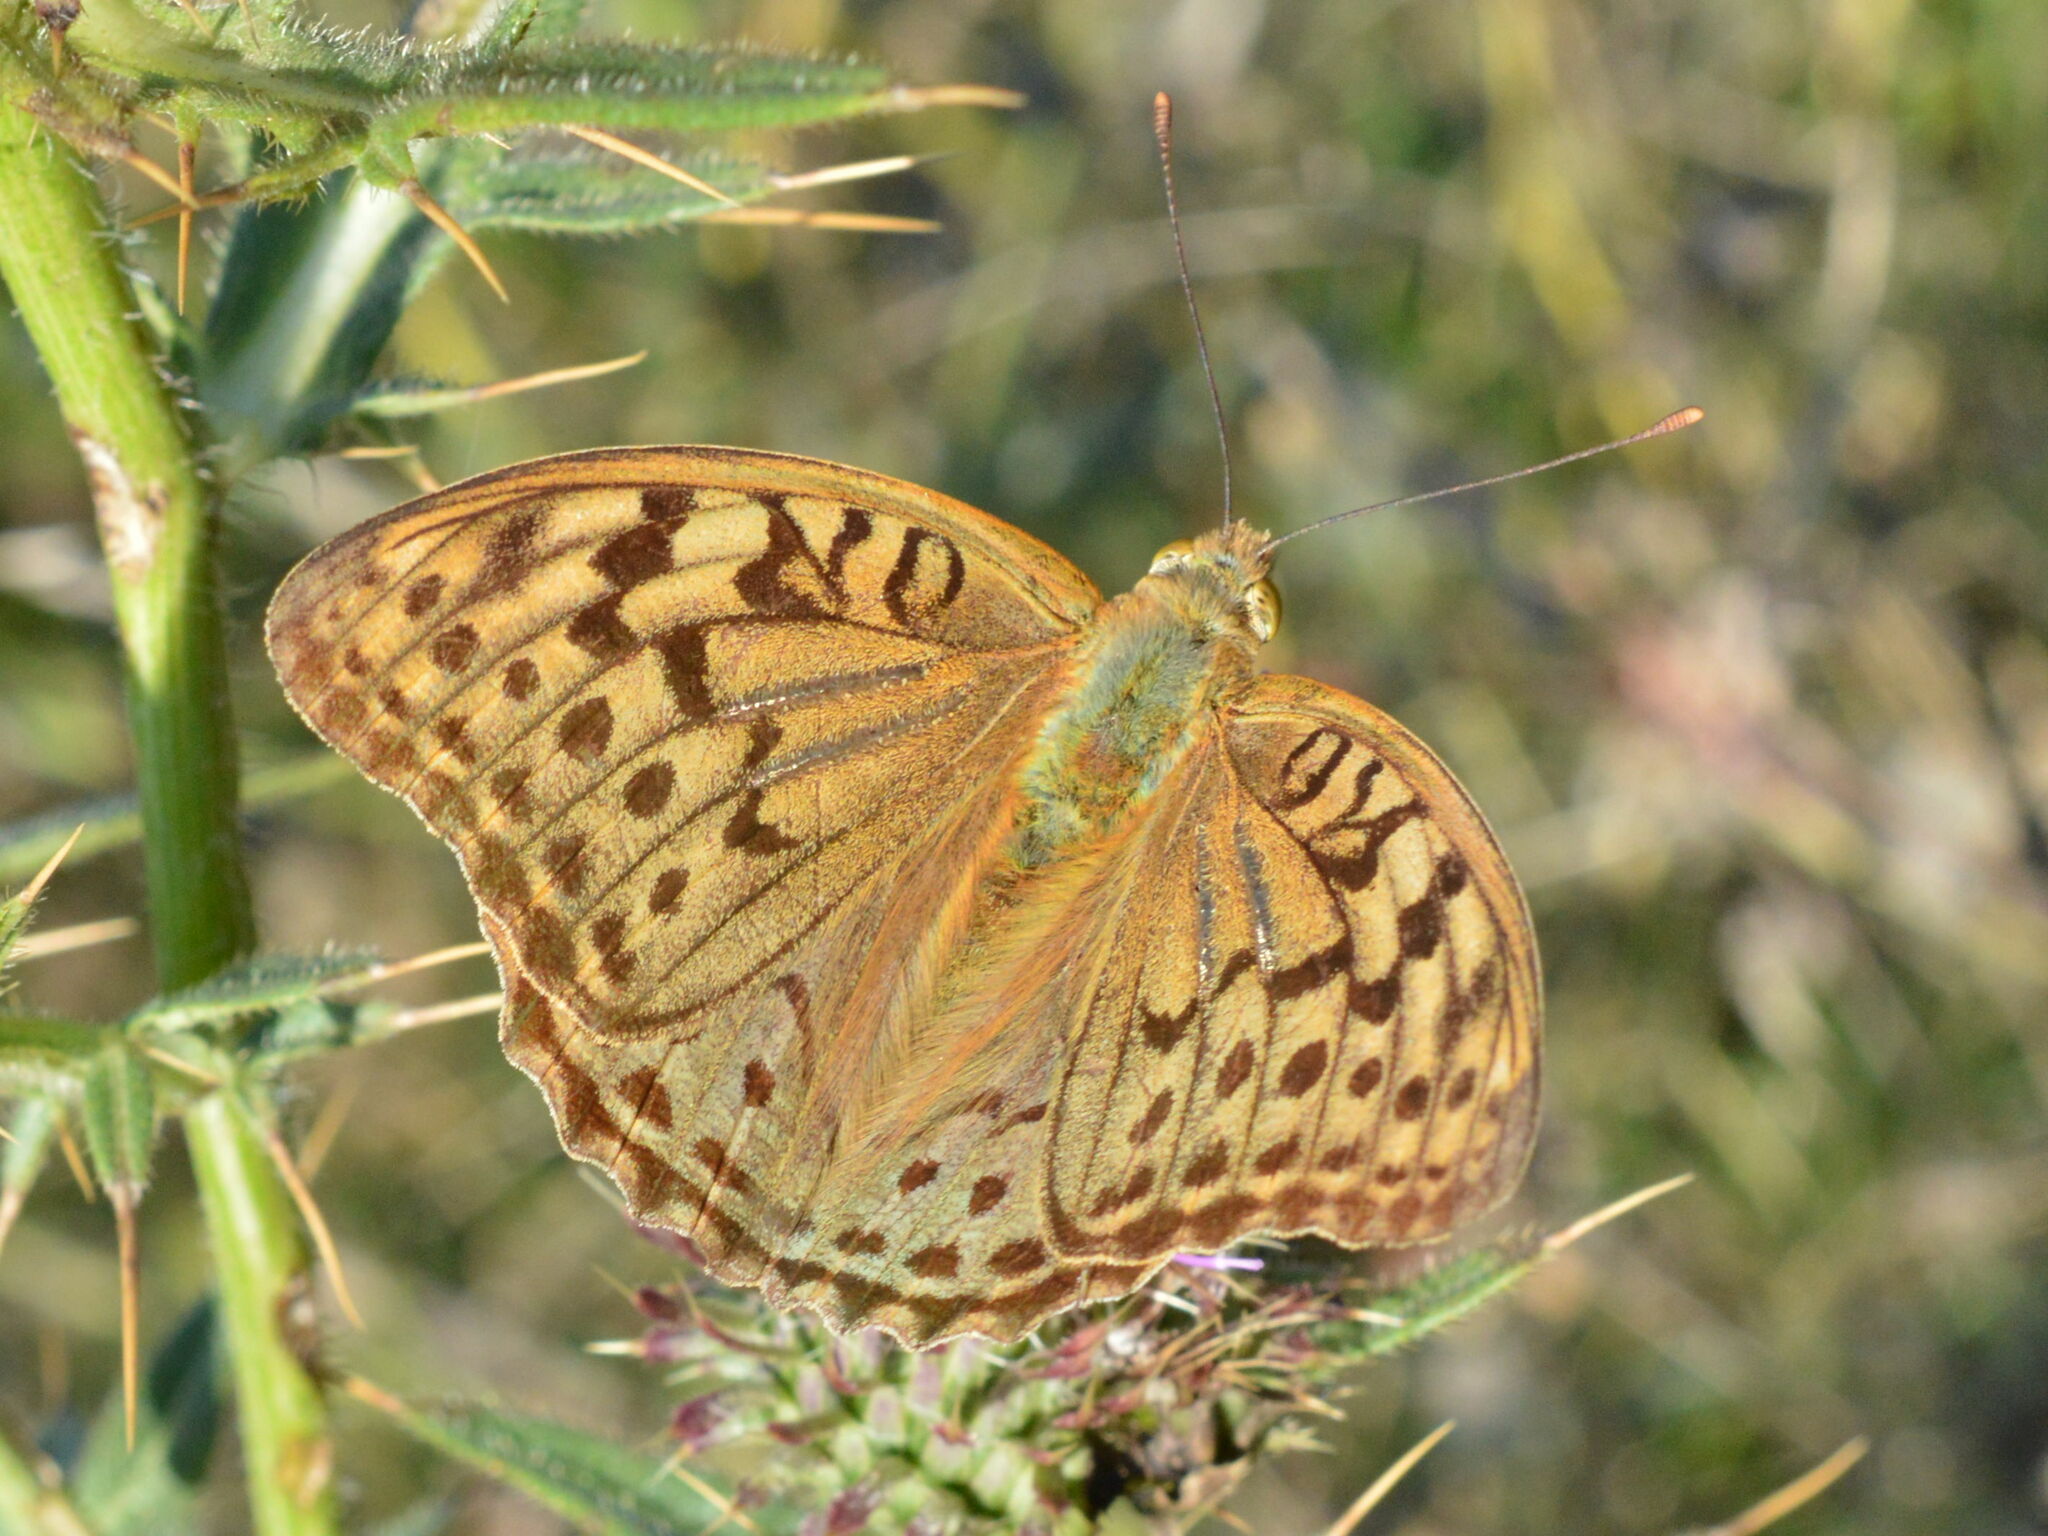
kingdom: Animalia
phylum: Arthropoda
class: Insecta
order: Lepidoptera
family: Nymphalidae
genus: Damora
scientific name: Damora pandora
